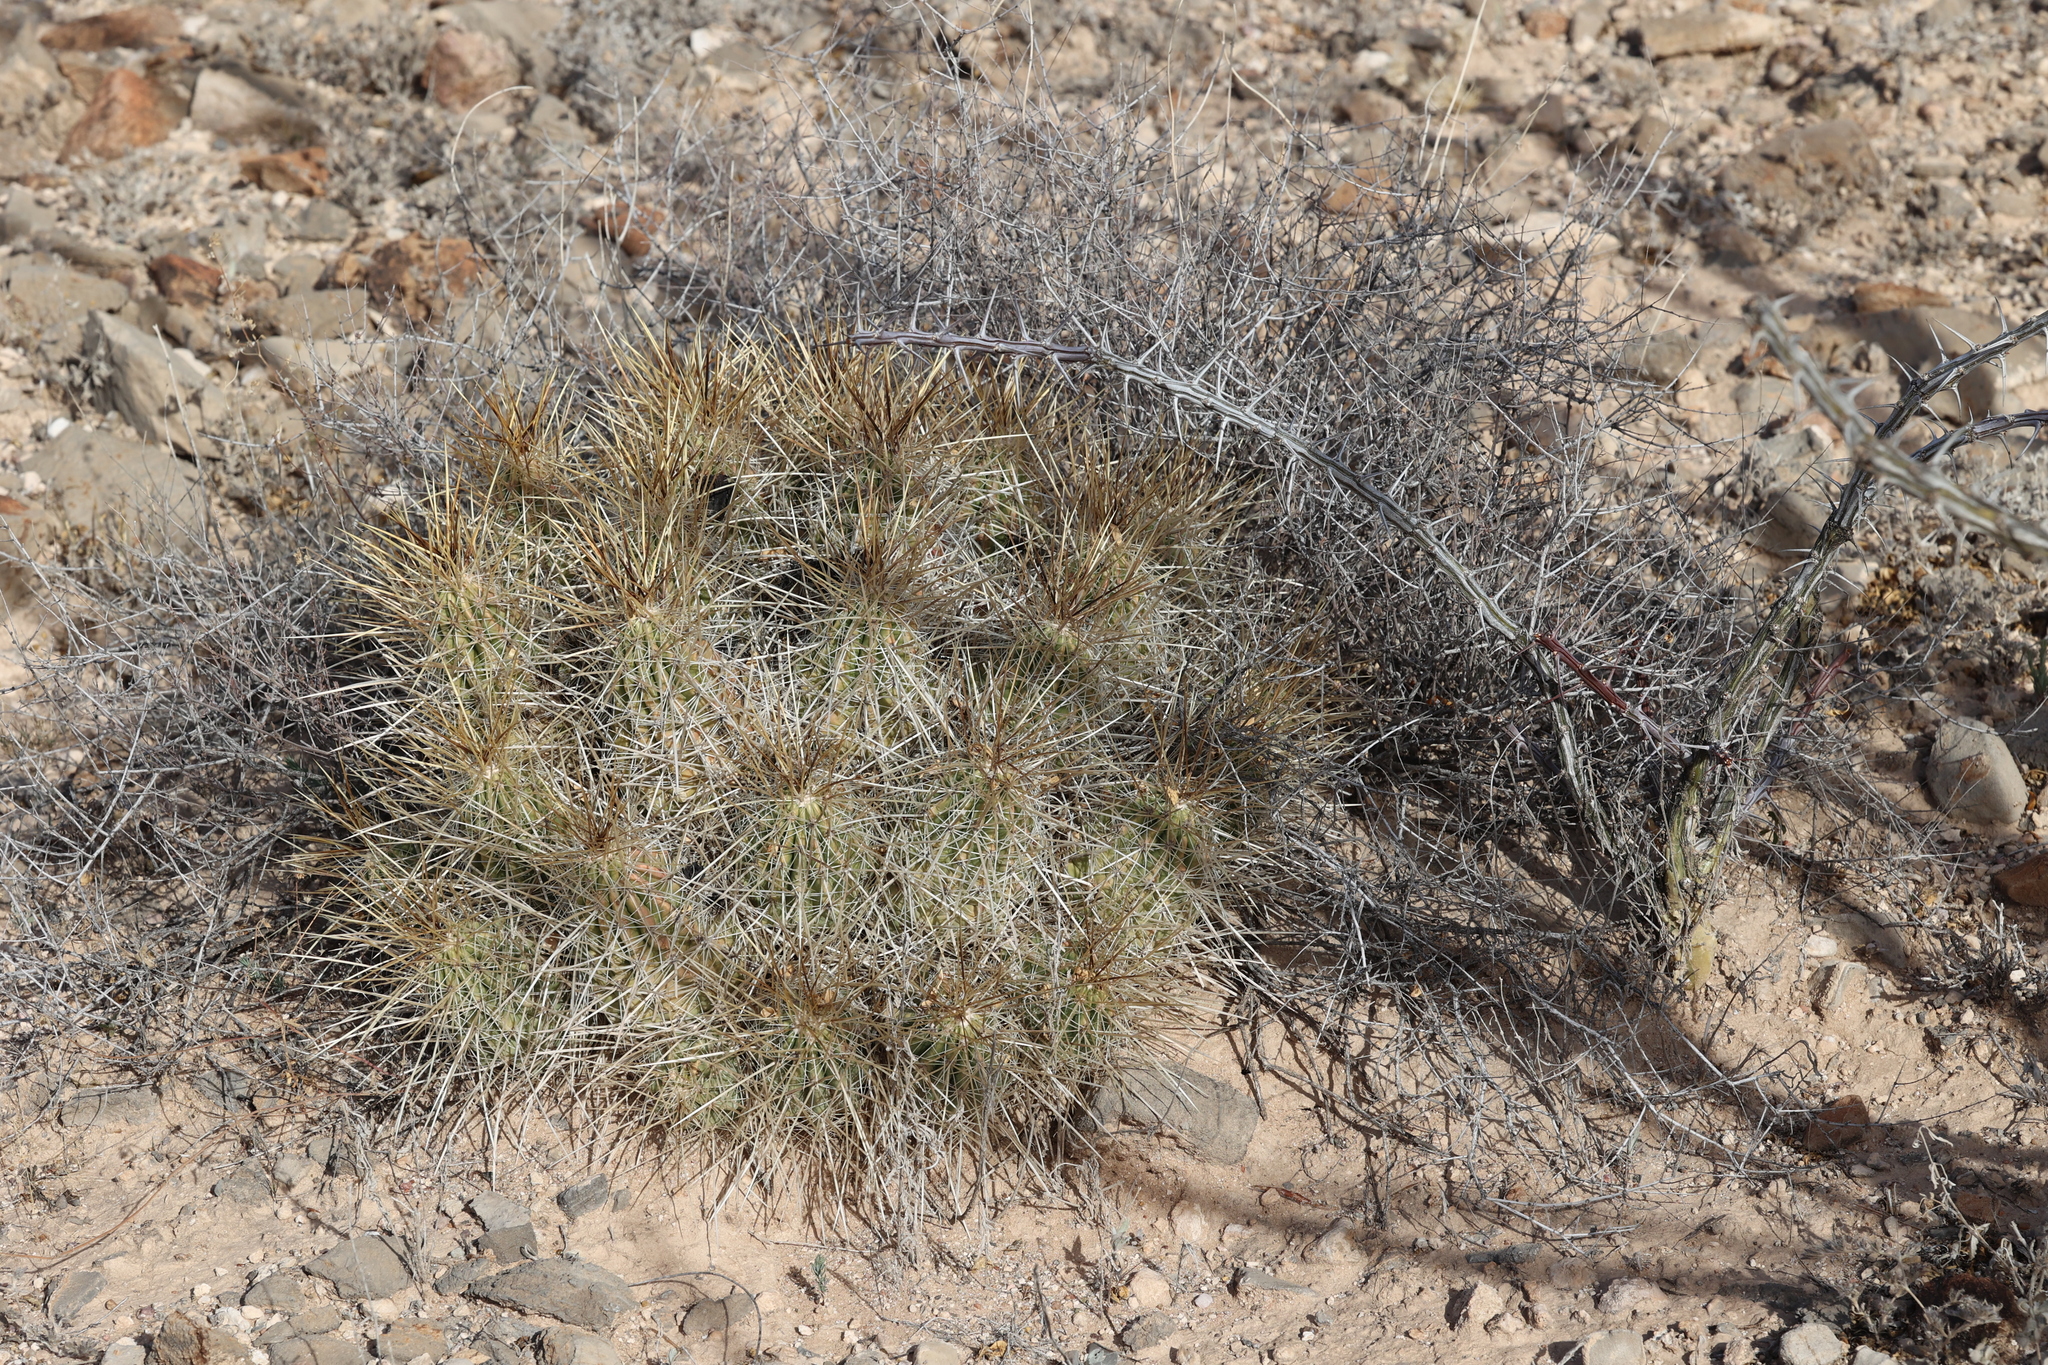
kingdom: Plantae
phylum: Tracheophyta
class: Magnoliopsida
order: Caryophyllales
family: Cactaceae
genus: Echinocereus
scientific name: Echinocereus stramineus
